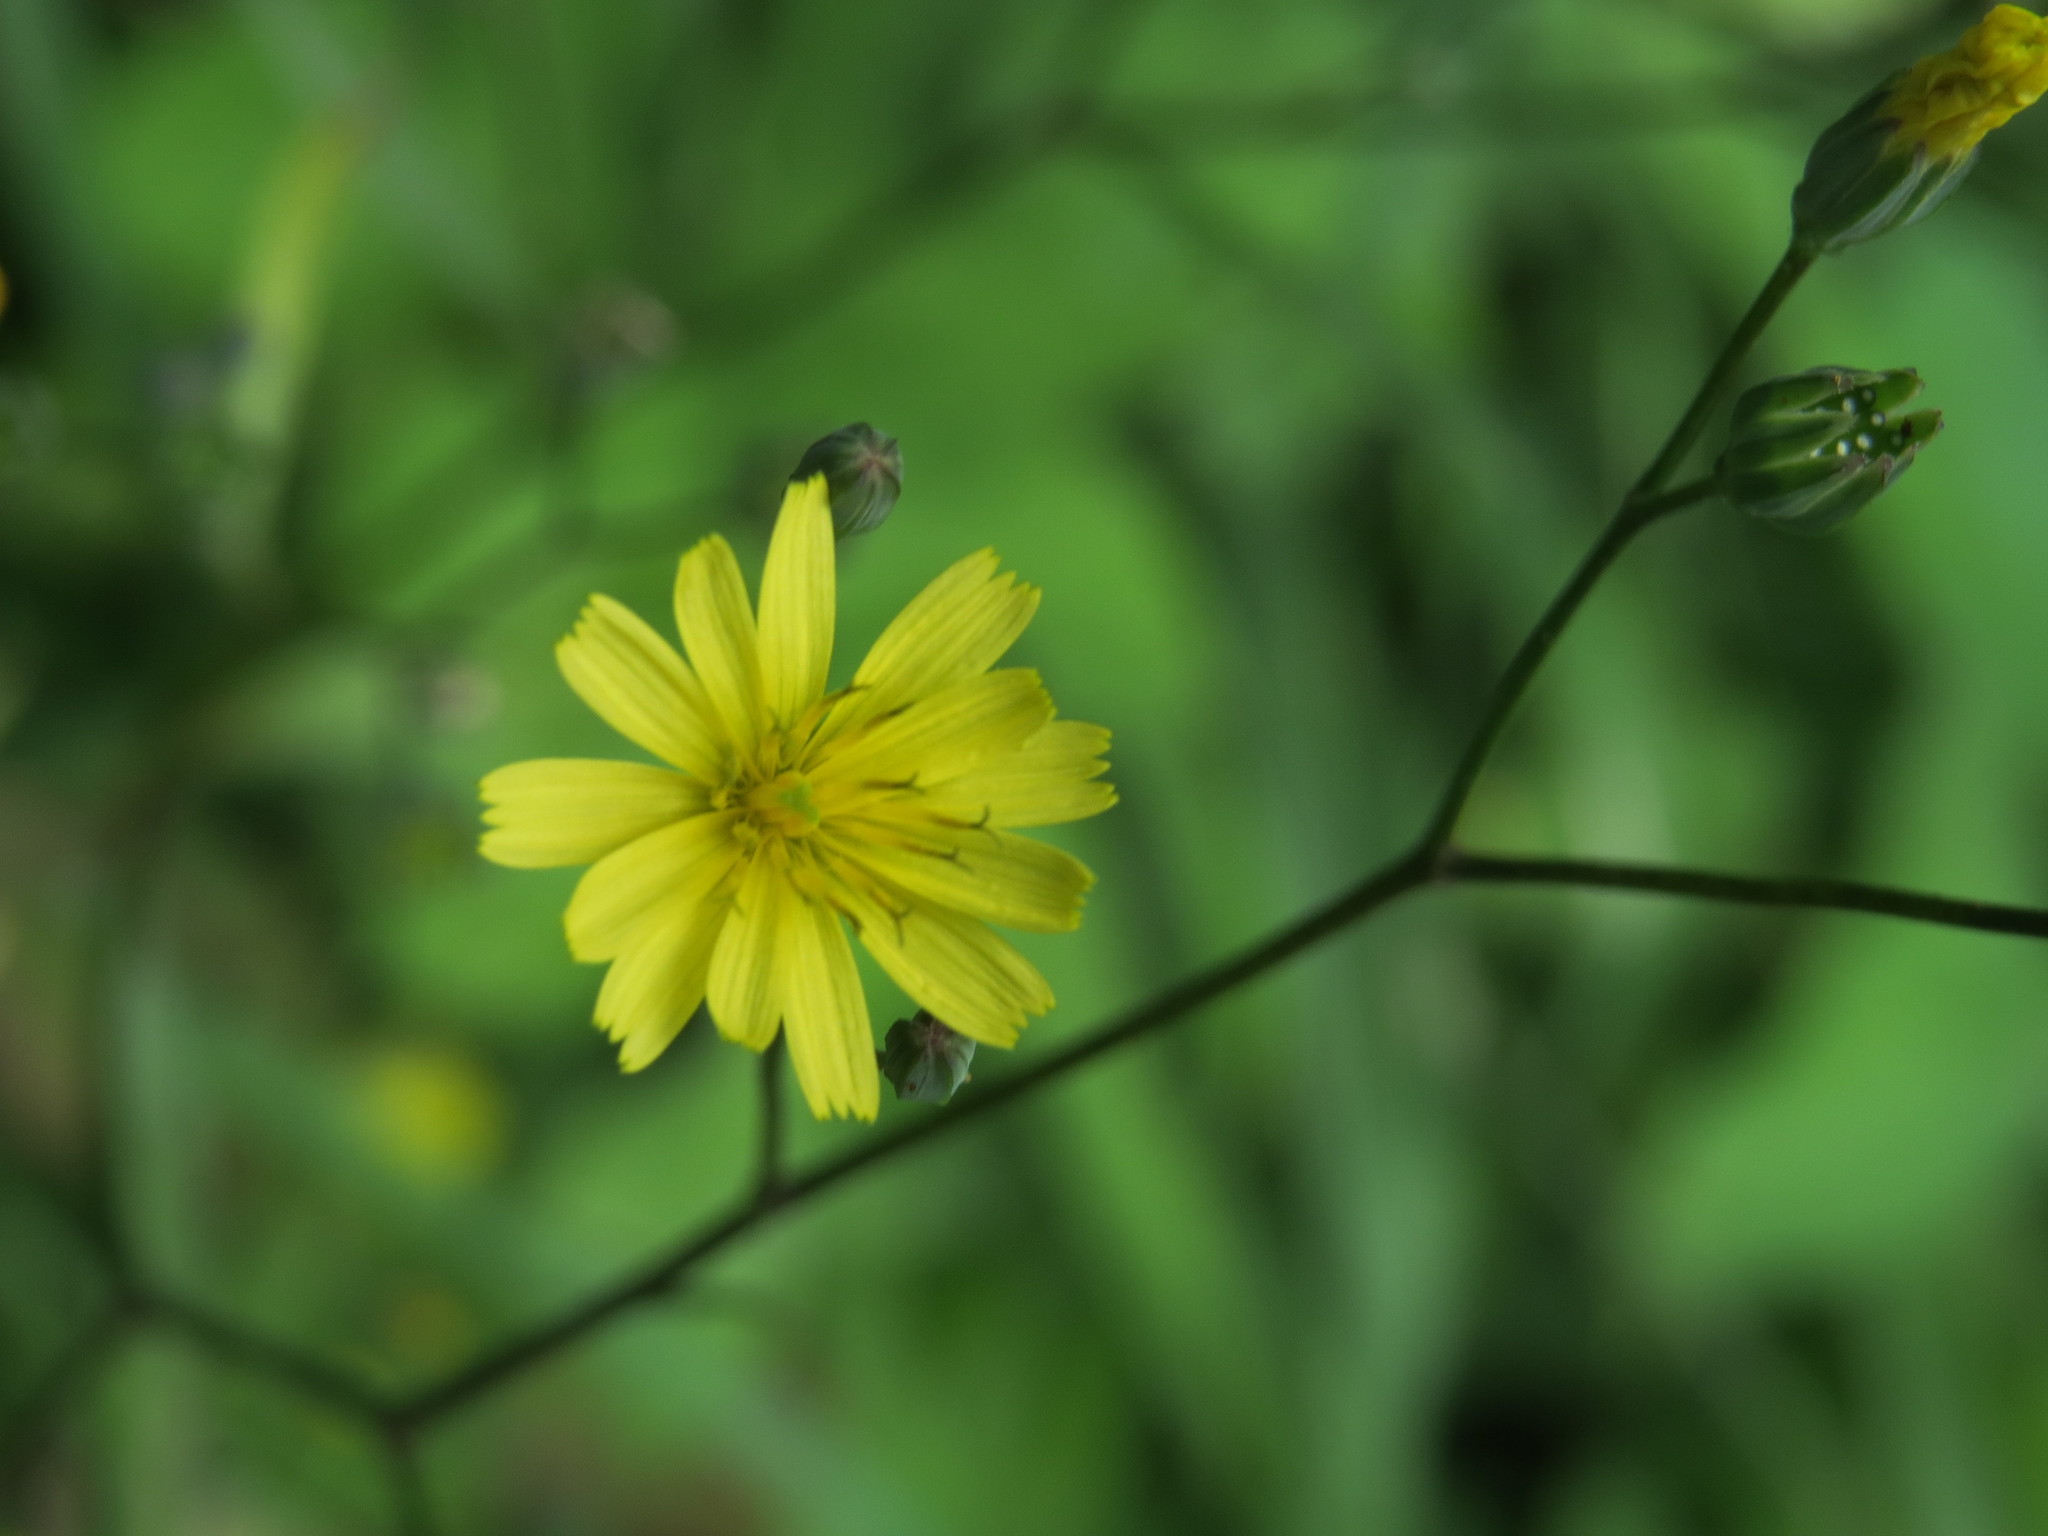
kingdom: Plantae
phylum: Tracheophyta
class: Magnoliopsida
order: Asterales
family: Asteraceae
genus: Lapsana
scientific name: Lapsana communis
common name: Nipplewort
